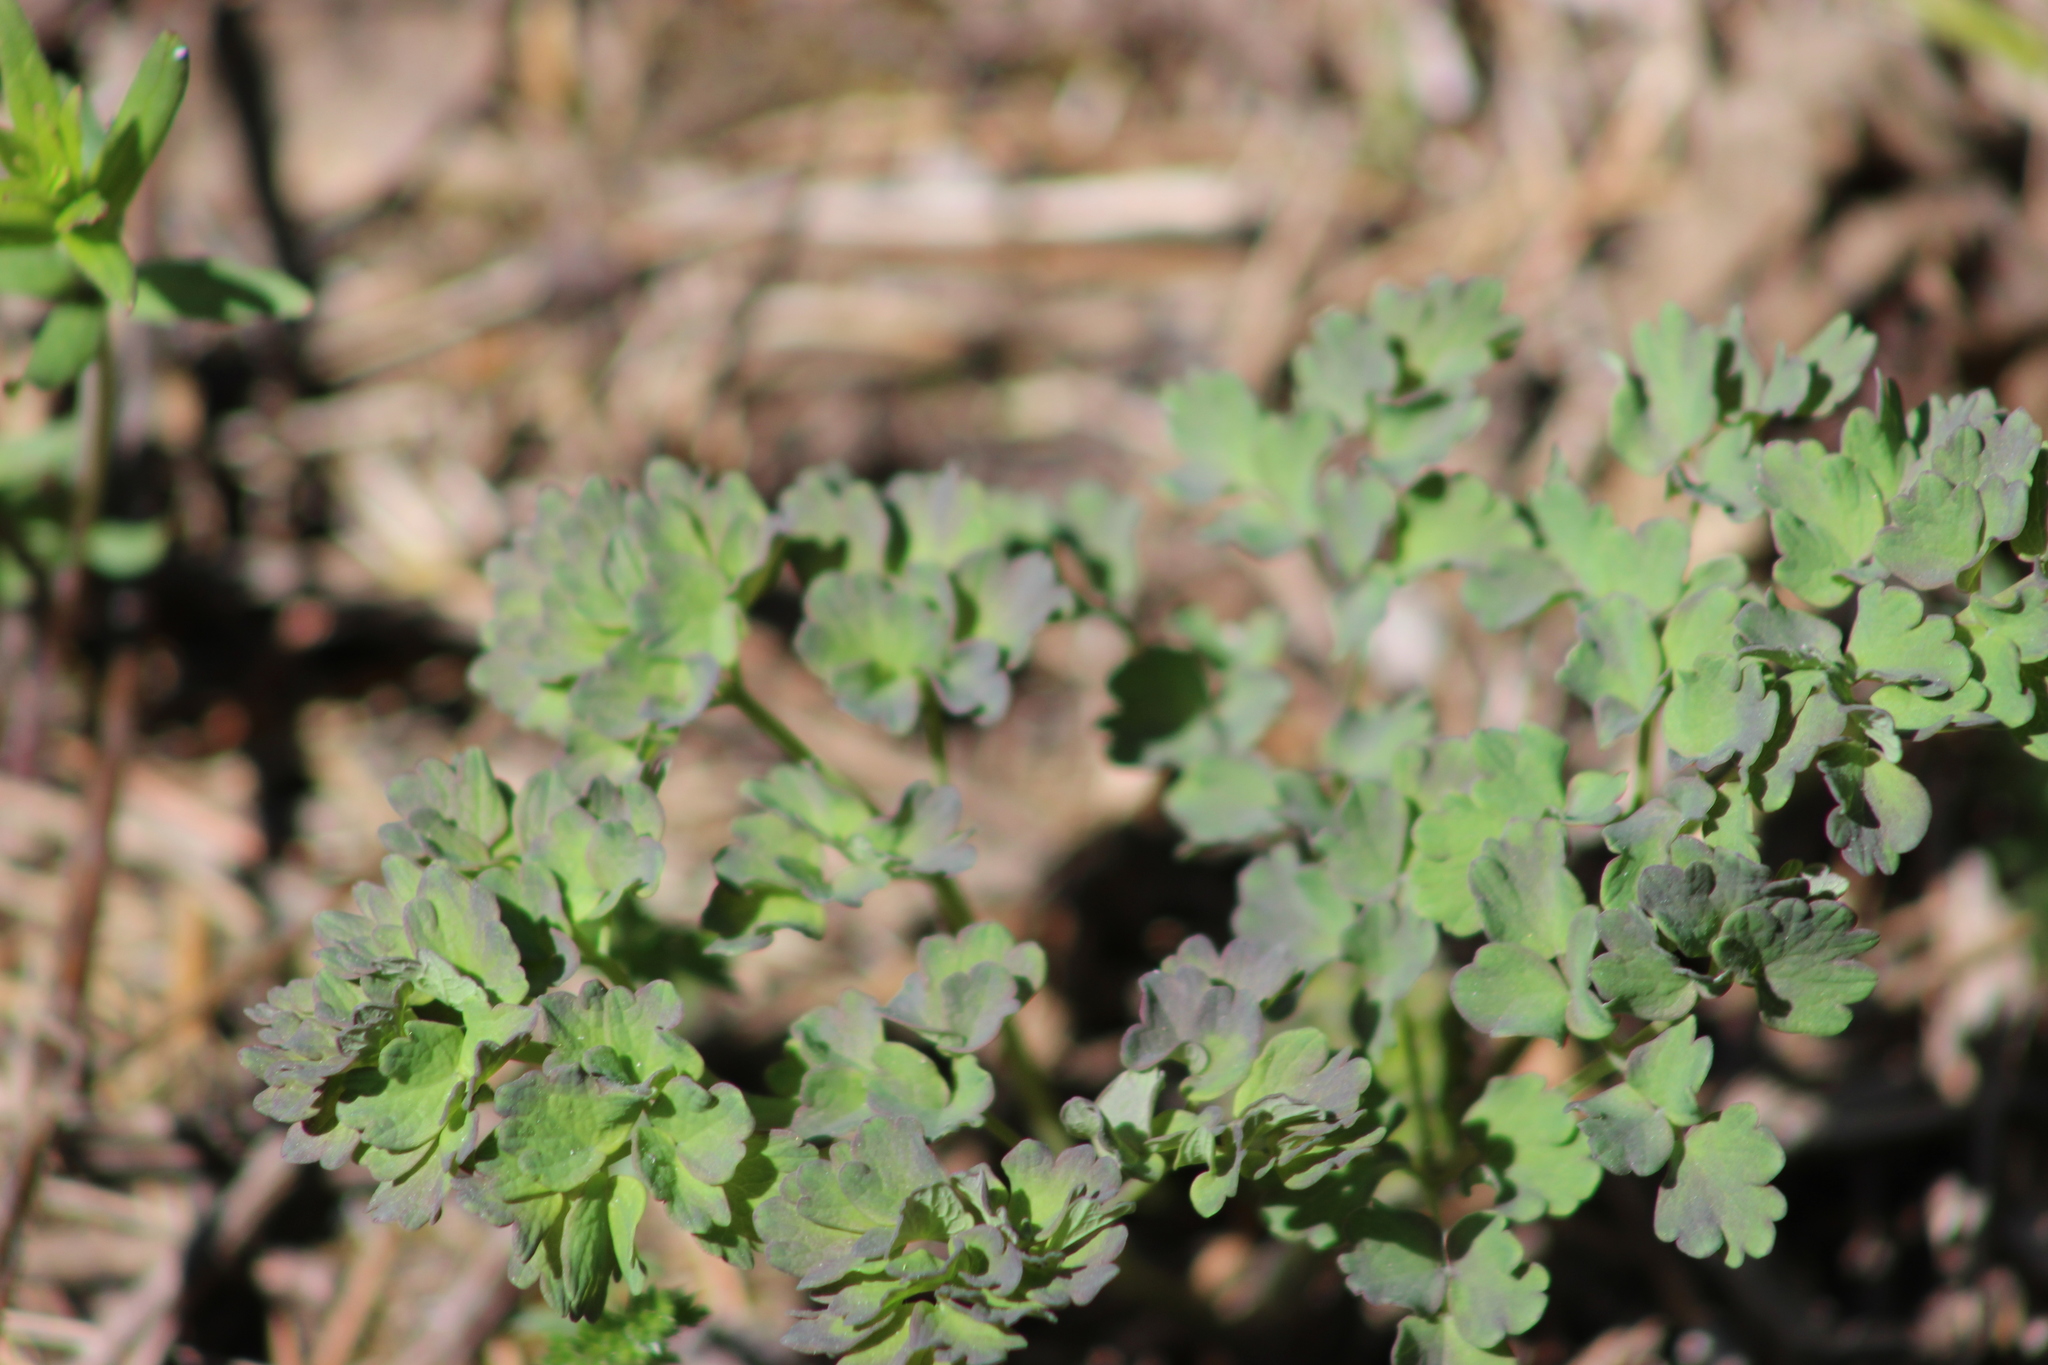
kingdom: Plantae
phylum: Tracheophyta
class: Magnoliopsida
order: Ranunculales
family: Ranunculaceae
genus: Thalictrum
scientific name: Thalictrum minus
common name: Lesser meadow-rue
